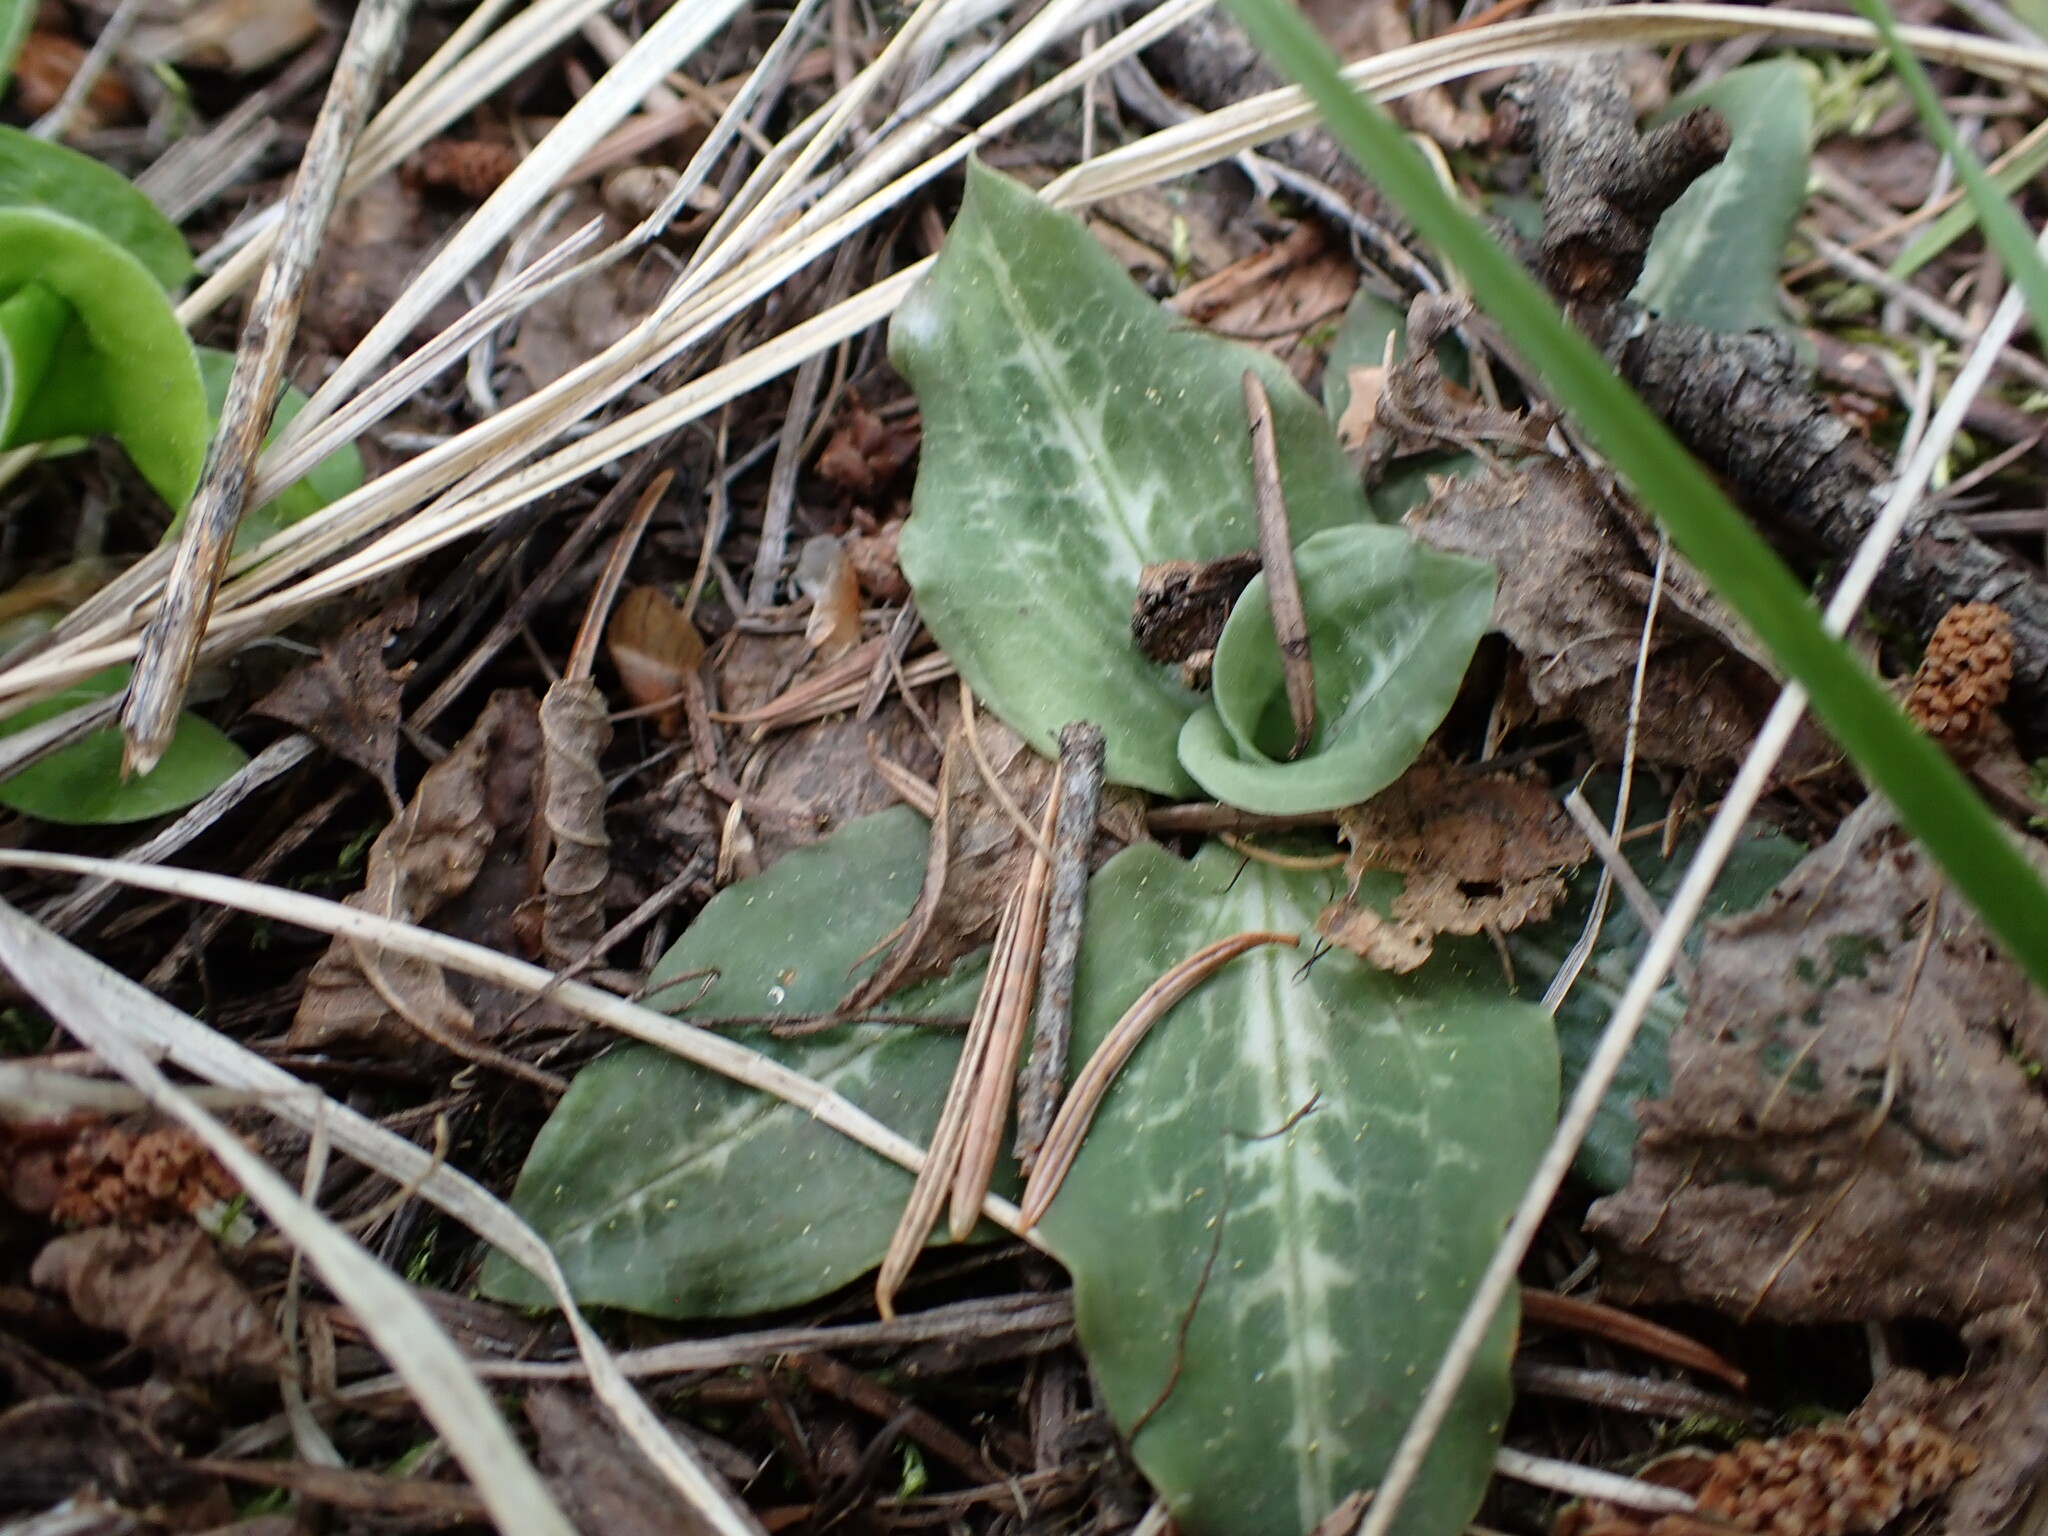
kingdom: Plantae
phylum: Tracheophyta
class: Liliopsida
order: Asparagales
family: Orchidaceae
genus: Goodyera
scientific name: Goodyera oblongifolia
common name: Giant rattlesnake-plantain
